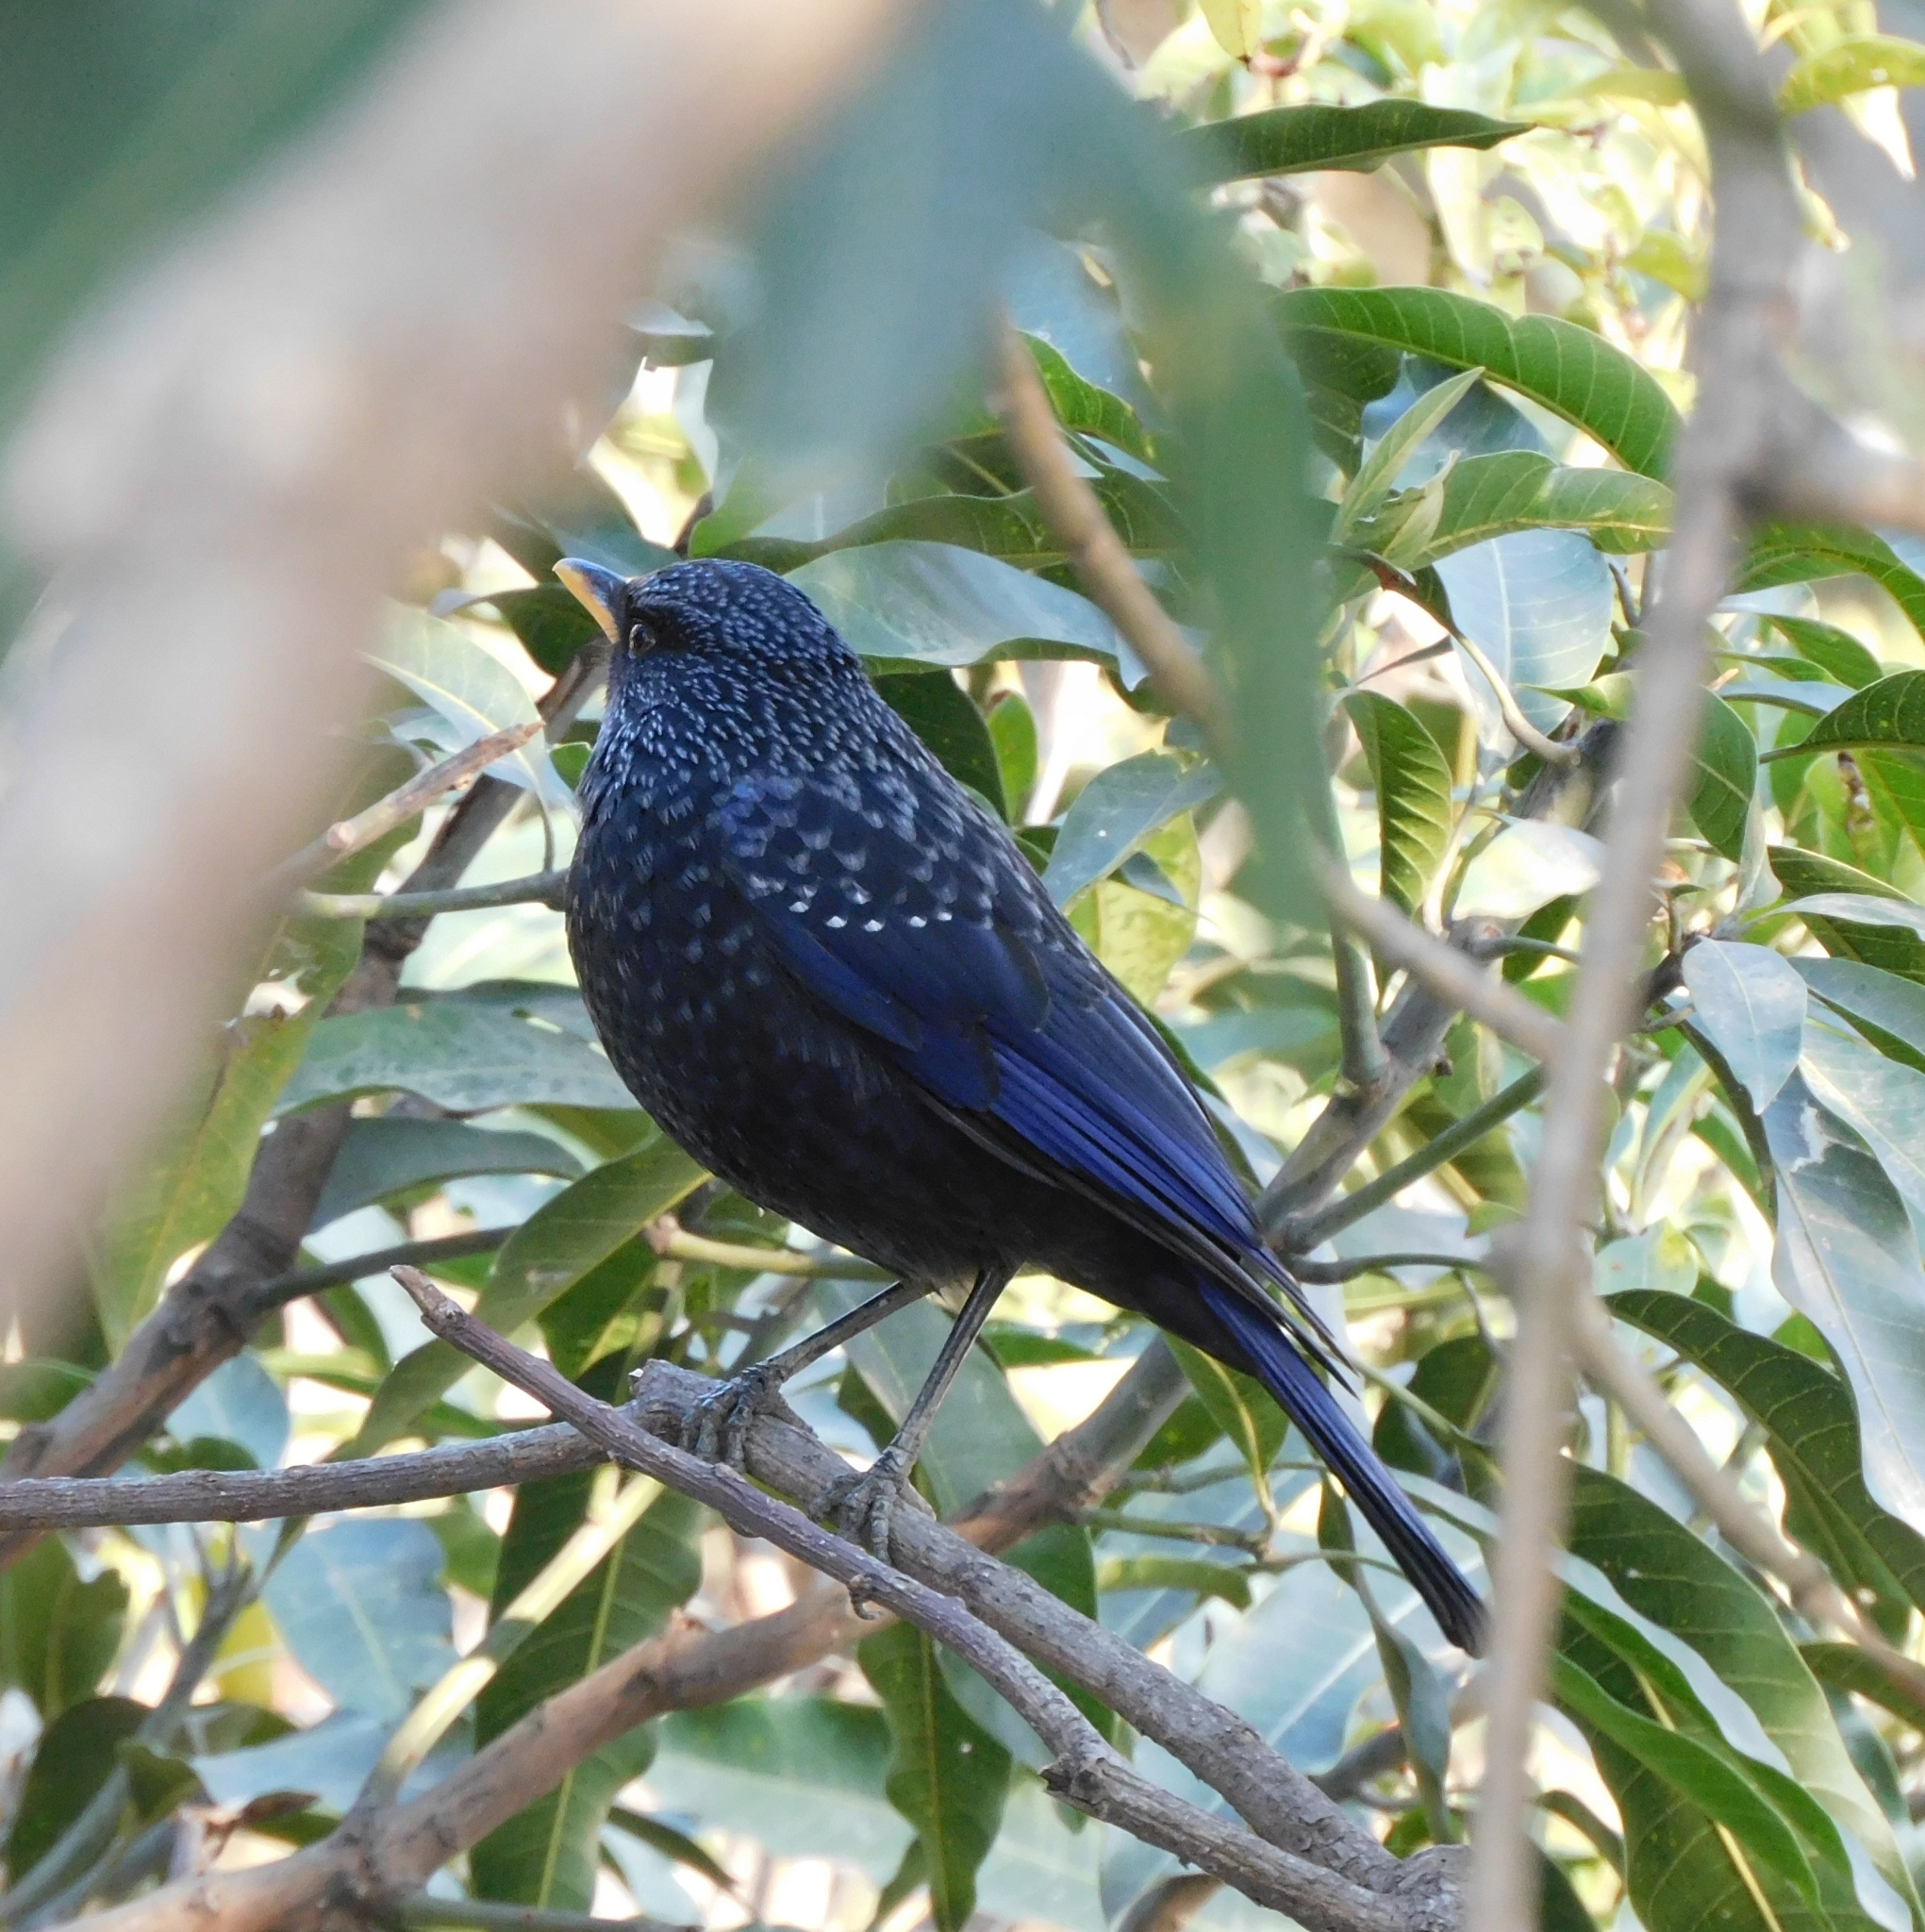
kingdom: Animalia
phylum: Chordata
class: Aves
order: Passeriformes
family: Muscicapidae
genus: Myophonus
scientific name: Myophonus caeruleus
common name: Blue whistling-thrush
